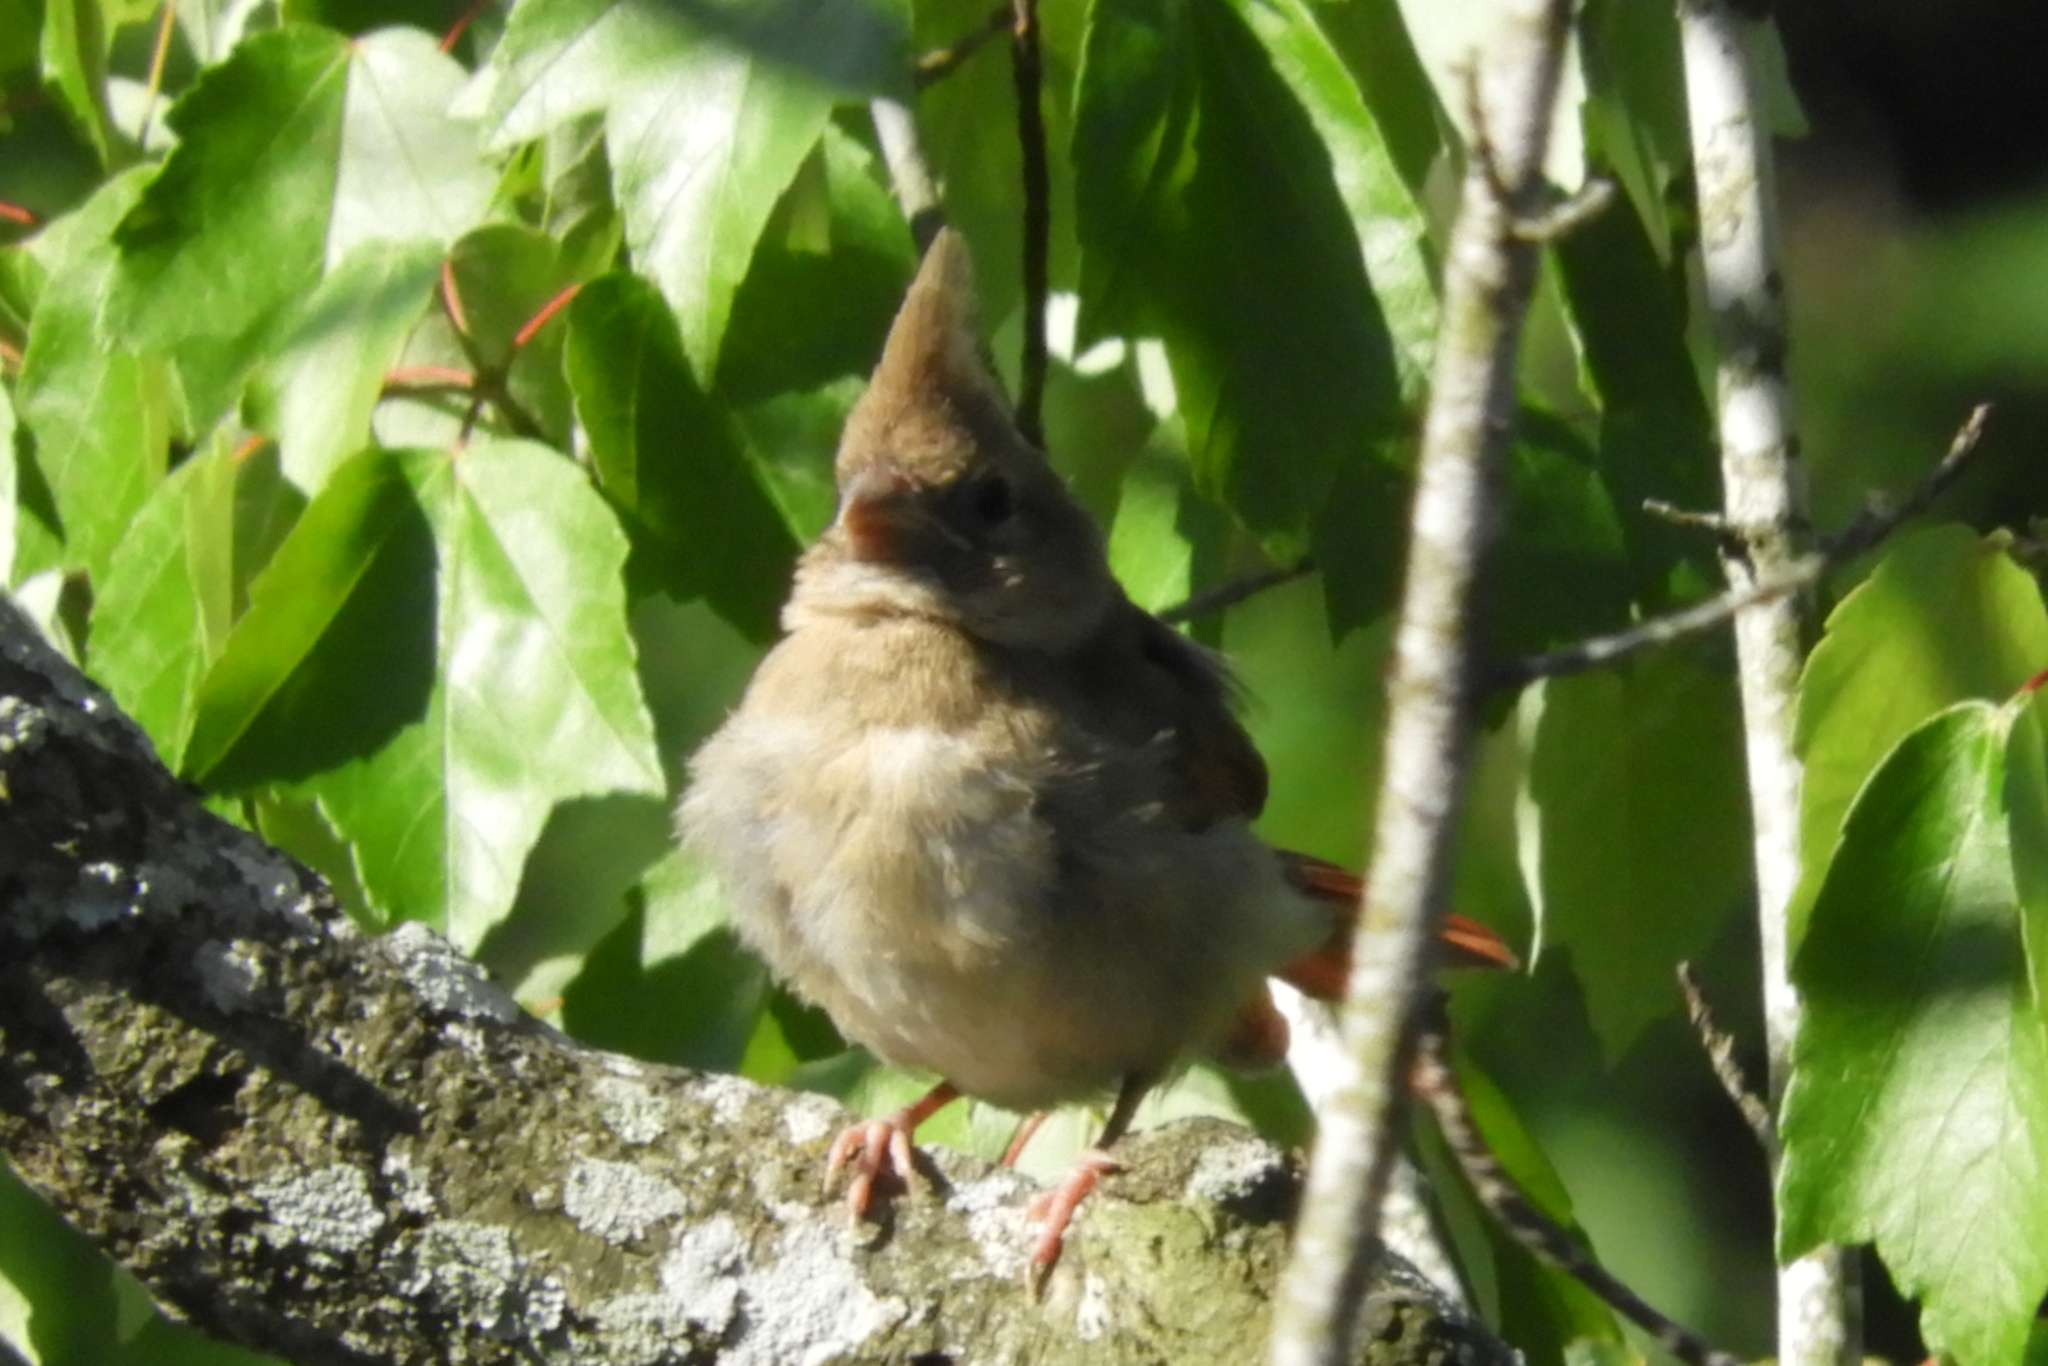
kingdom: Animalia
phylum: Chordata
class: Aves
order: Passeriformes
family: Cardinalidae
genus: Cardinalis
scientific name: Cardinalis cardinalis
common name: Northern cardinal
